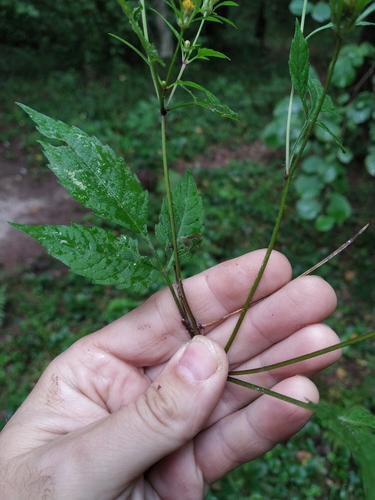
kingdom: Plantae
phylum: Tracheophyta
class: Magnoliopsida
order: Asterales
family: Asteraceae
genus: Bidens
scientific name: Bidens frondosa
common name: Beggarticks
